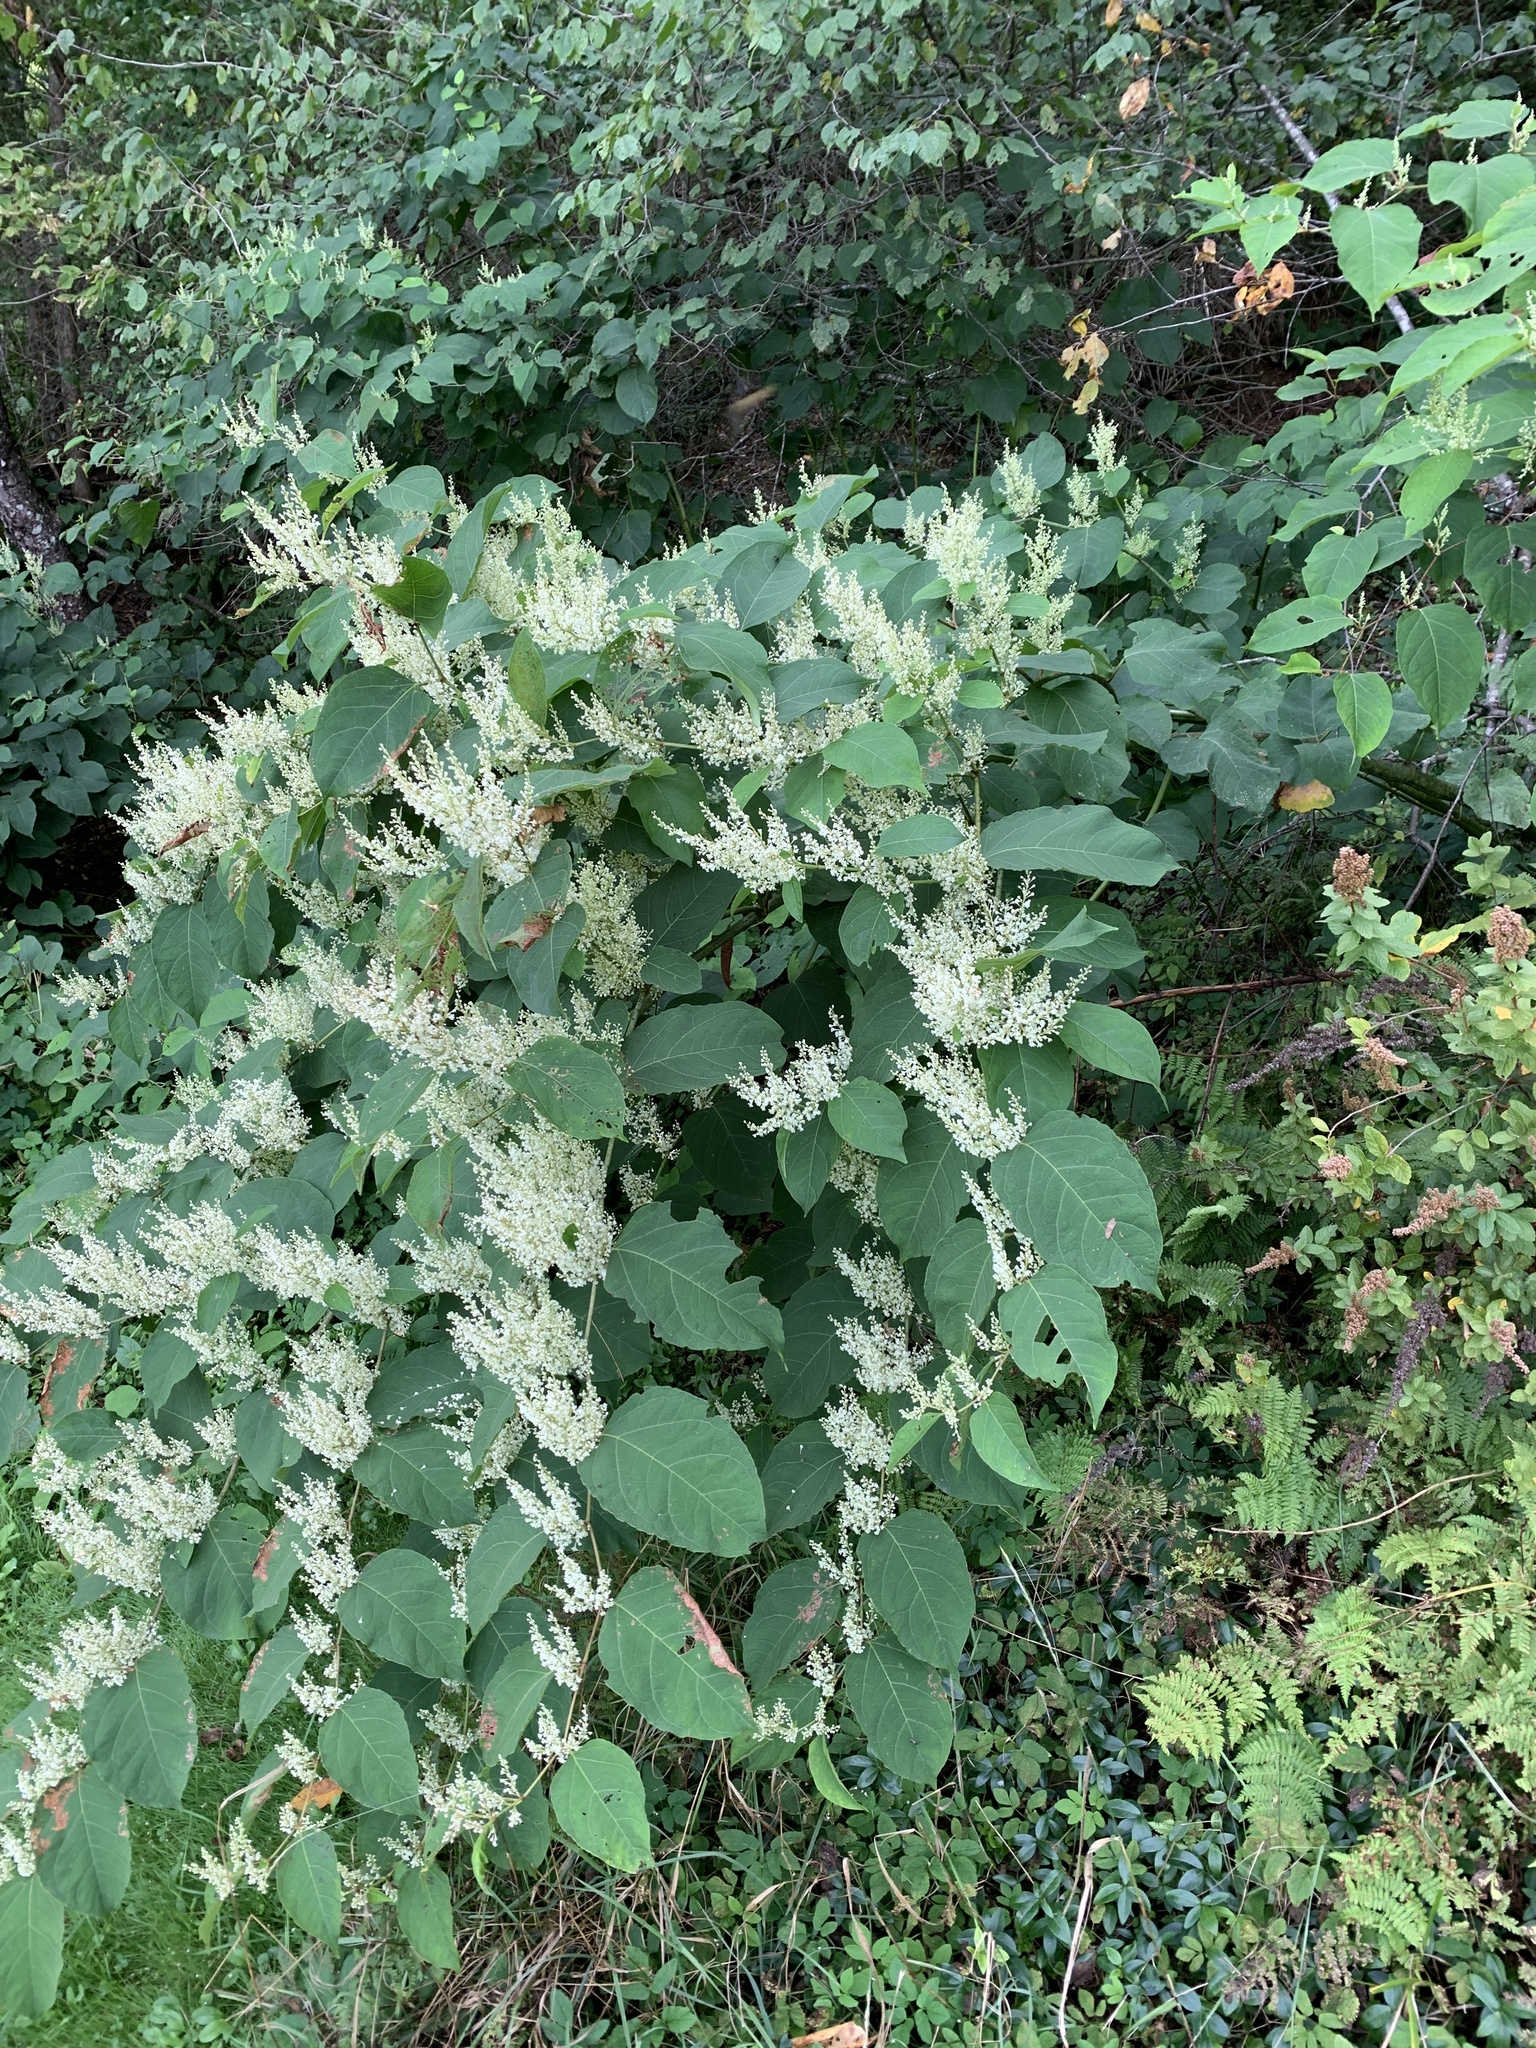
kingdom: Plantae
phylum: Tracheophyta
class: Magnoliopsida
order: Caryophyllales
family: Polygonaceae
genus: Reynoutria
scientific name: Reynoutria japonica
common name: Japanese knotweed
